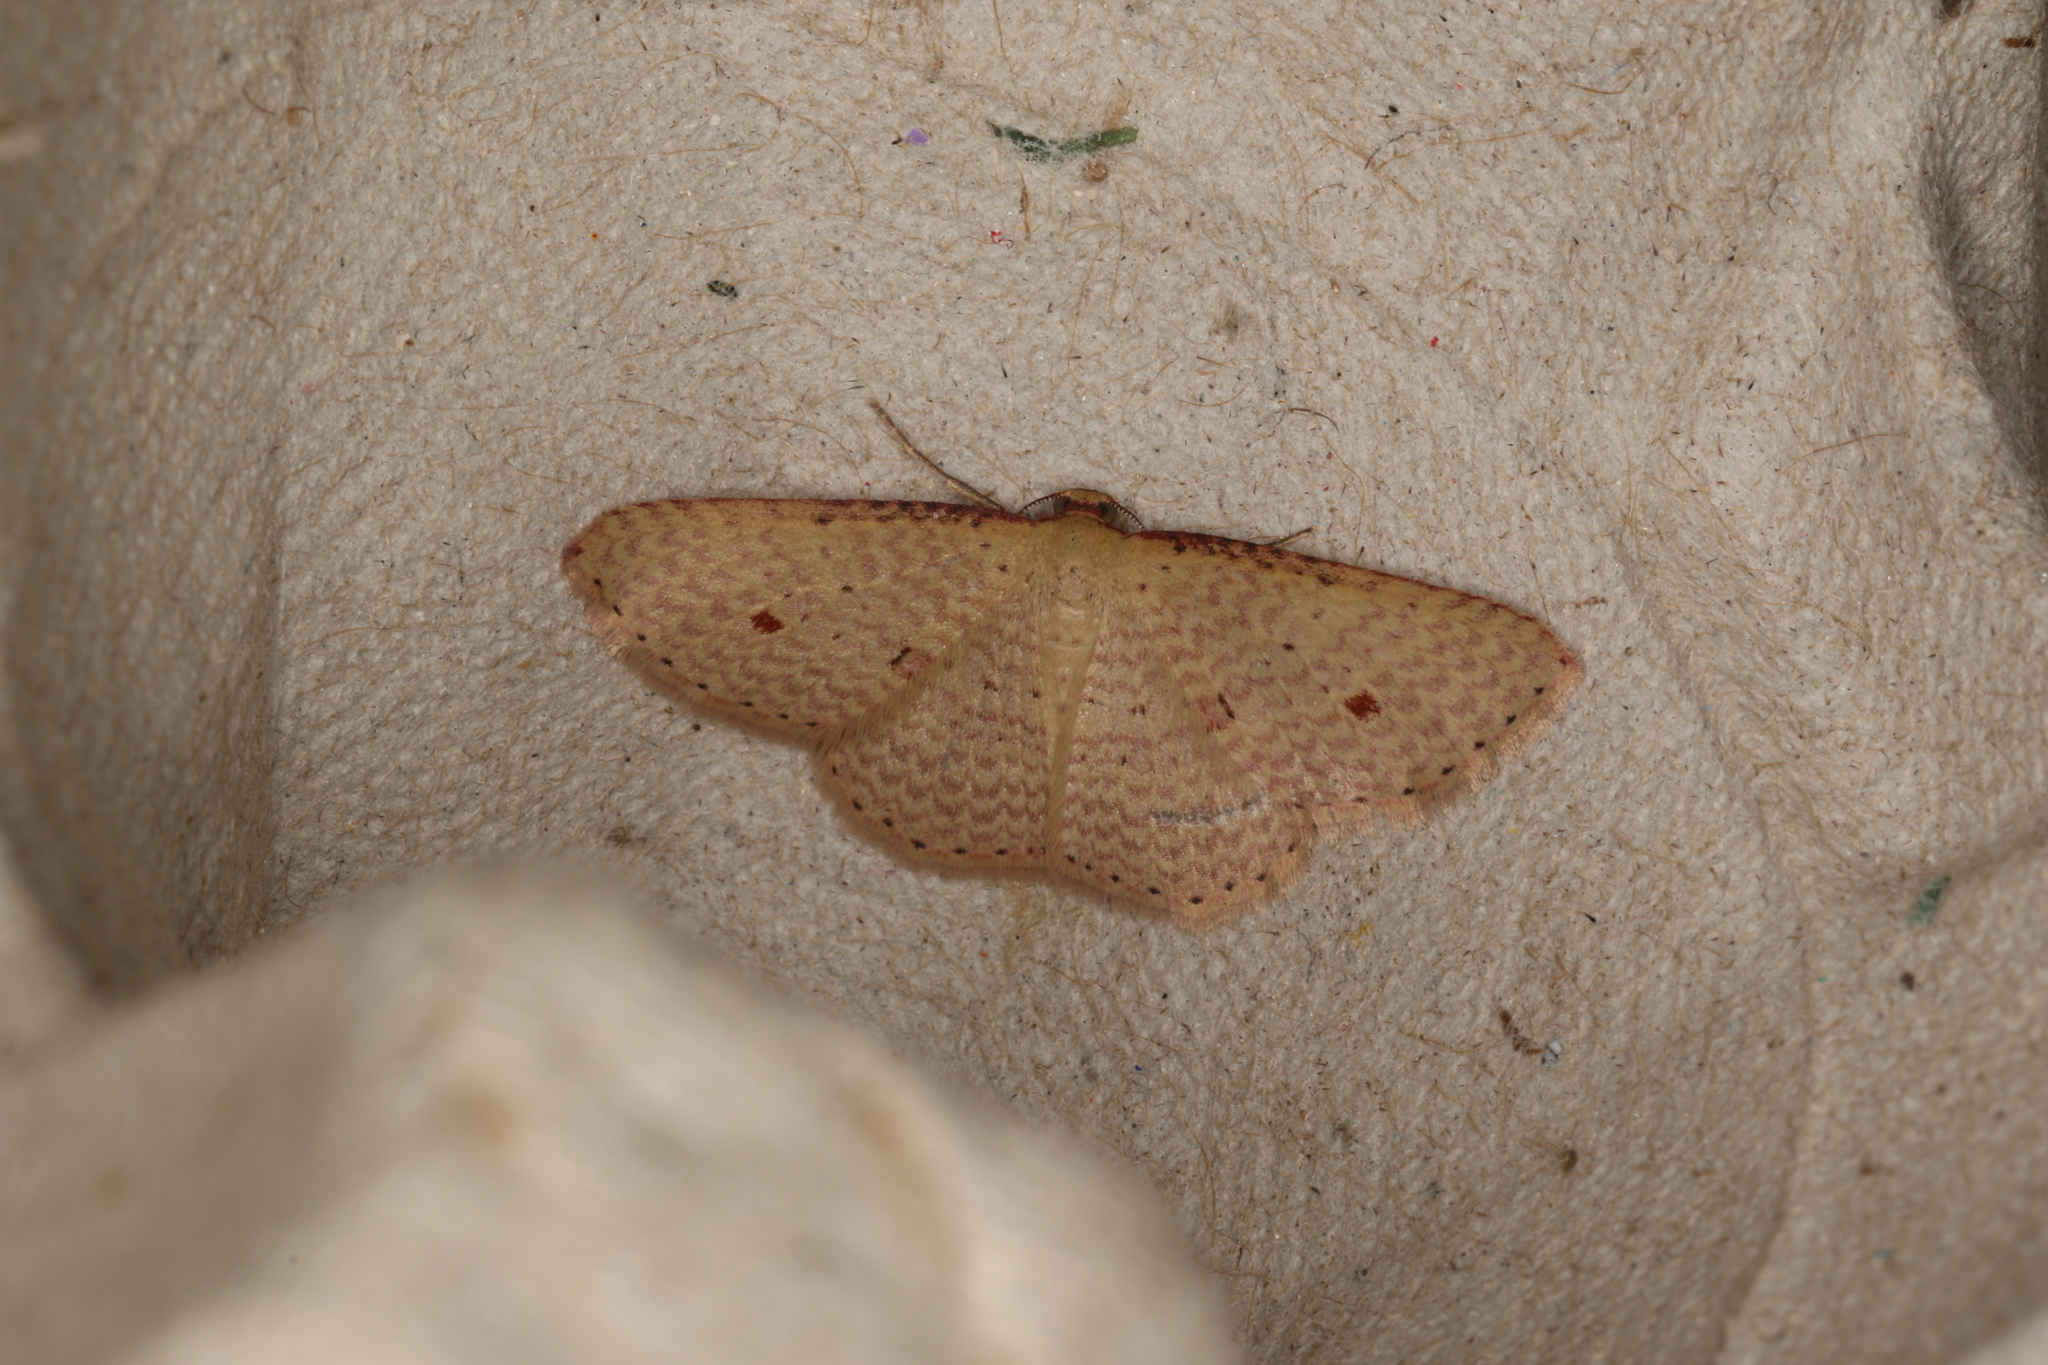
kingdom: Animalia
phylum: Arthropoda
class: Insecta
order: Lepidoptera
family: Geometridae
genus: Epicyme
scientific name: Epicyme rubropunctaria
